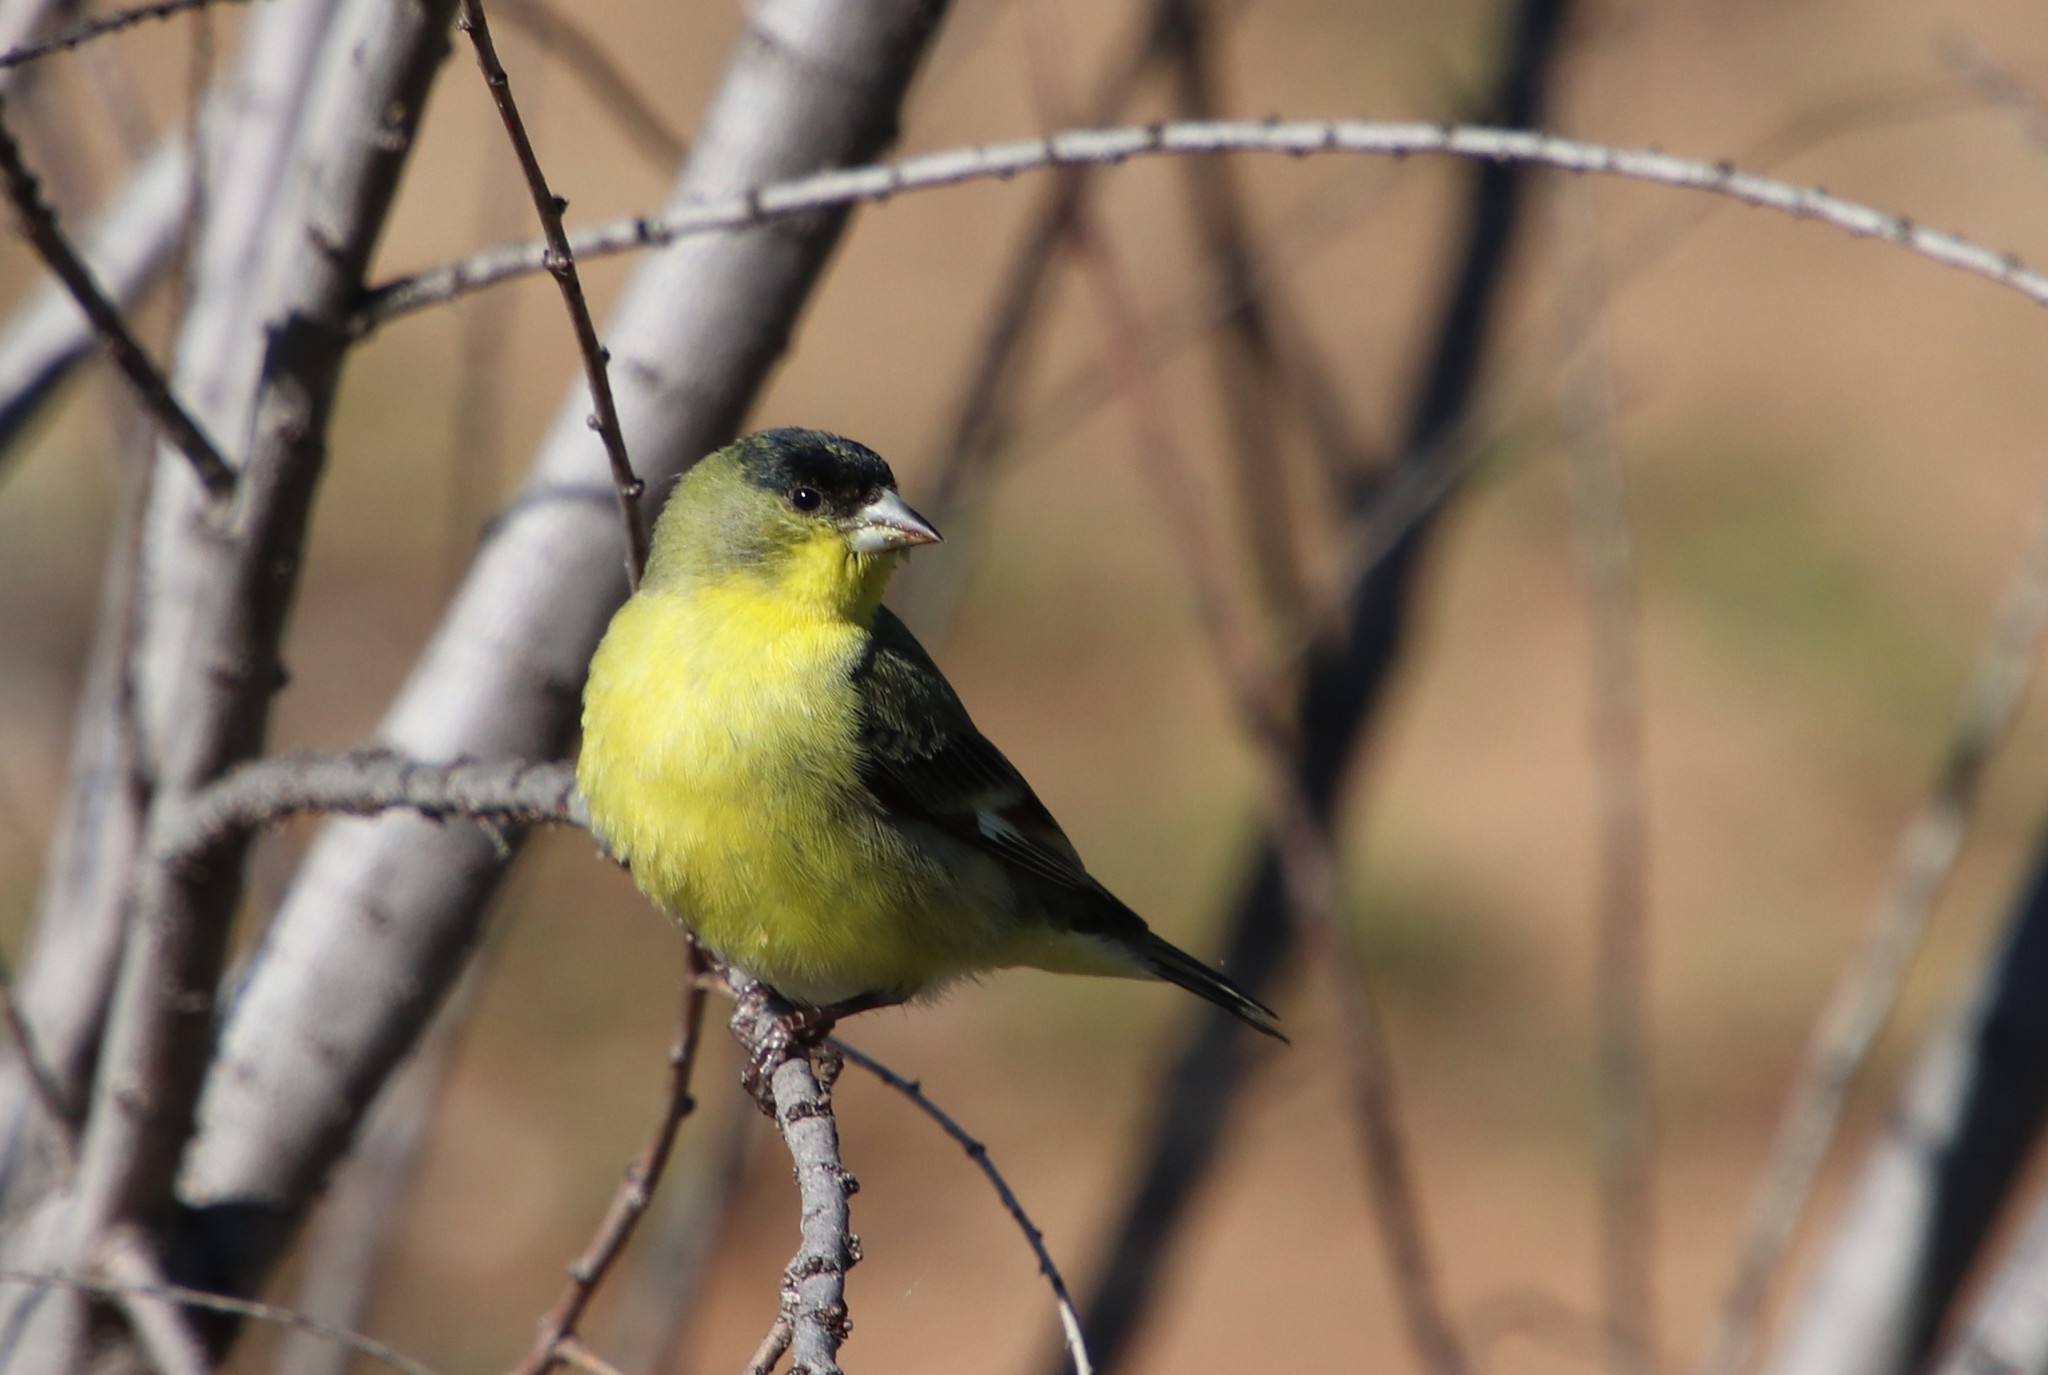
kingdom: Animalia
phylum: Chordata
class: Aves
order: Passeriformes
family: Fringillidae
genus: Spinus
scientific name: Spinus psaltria
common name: Lesser goldfinch
